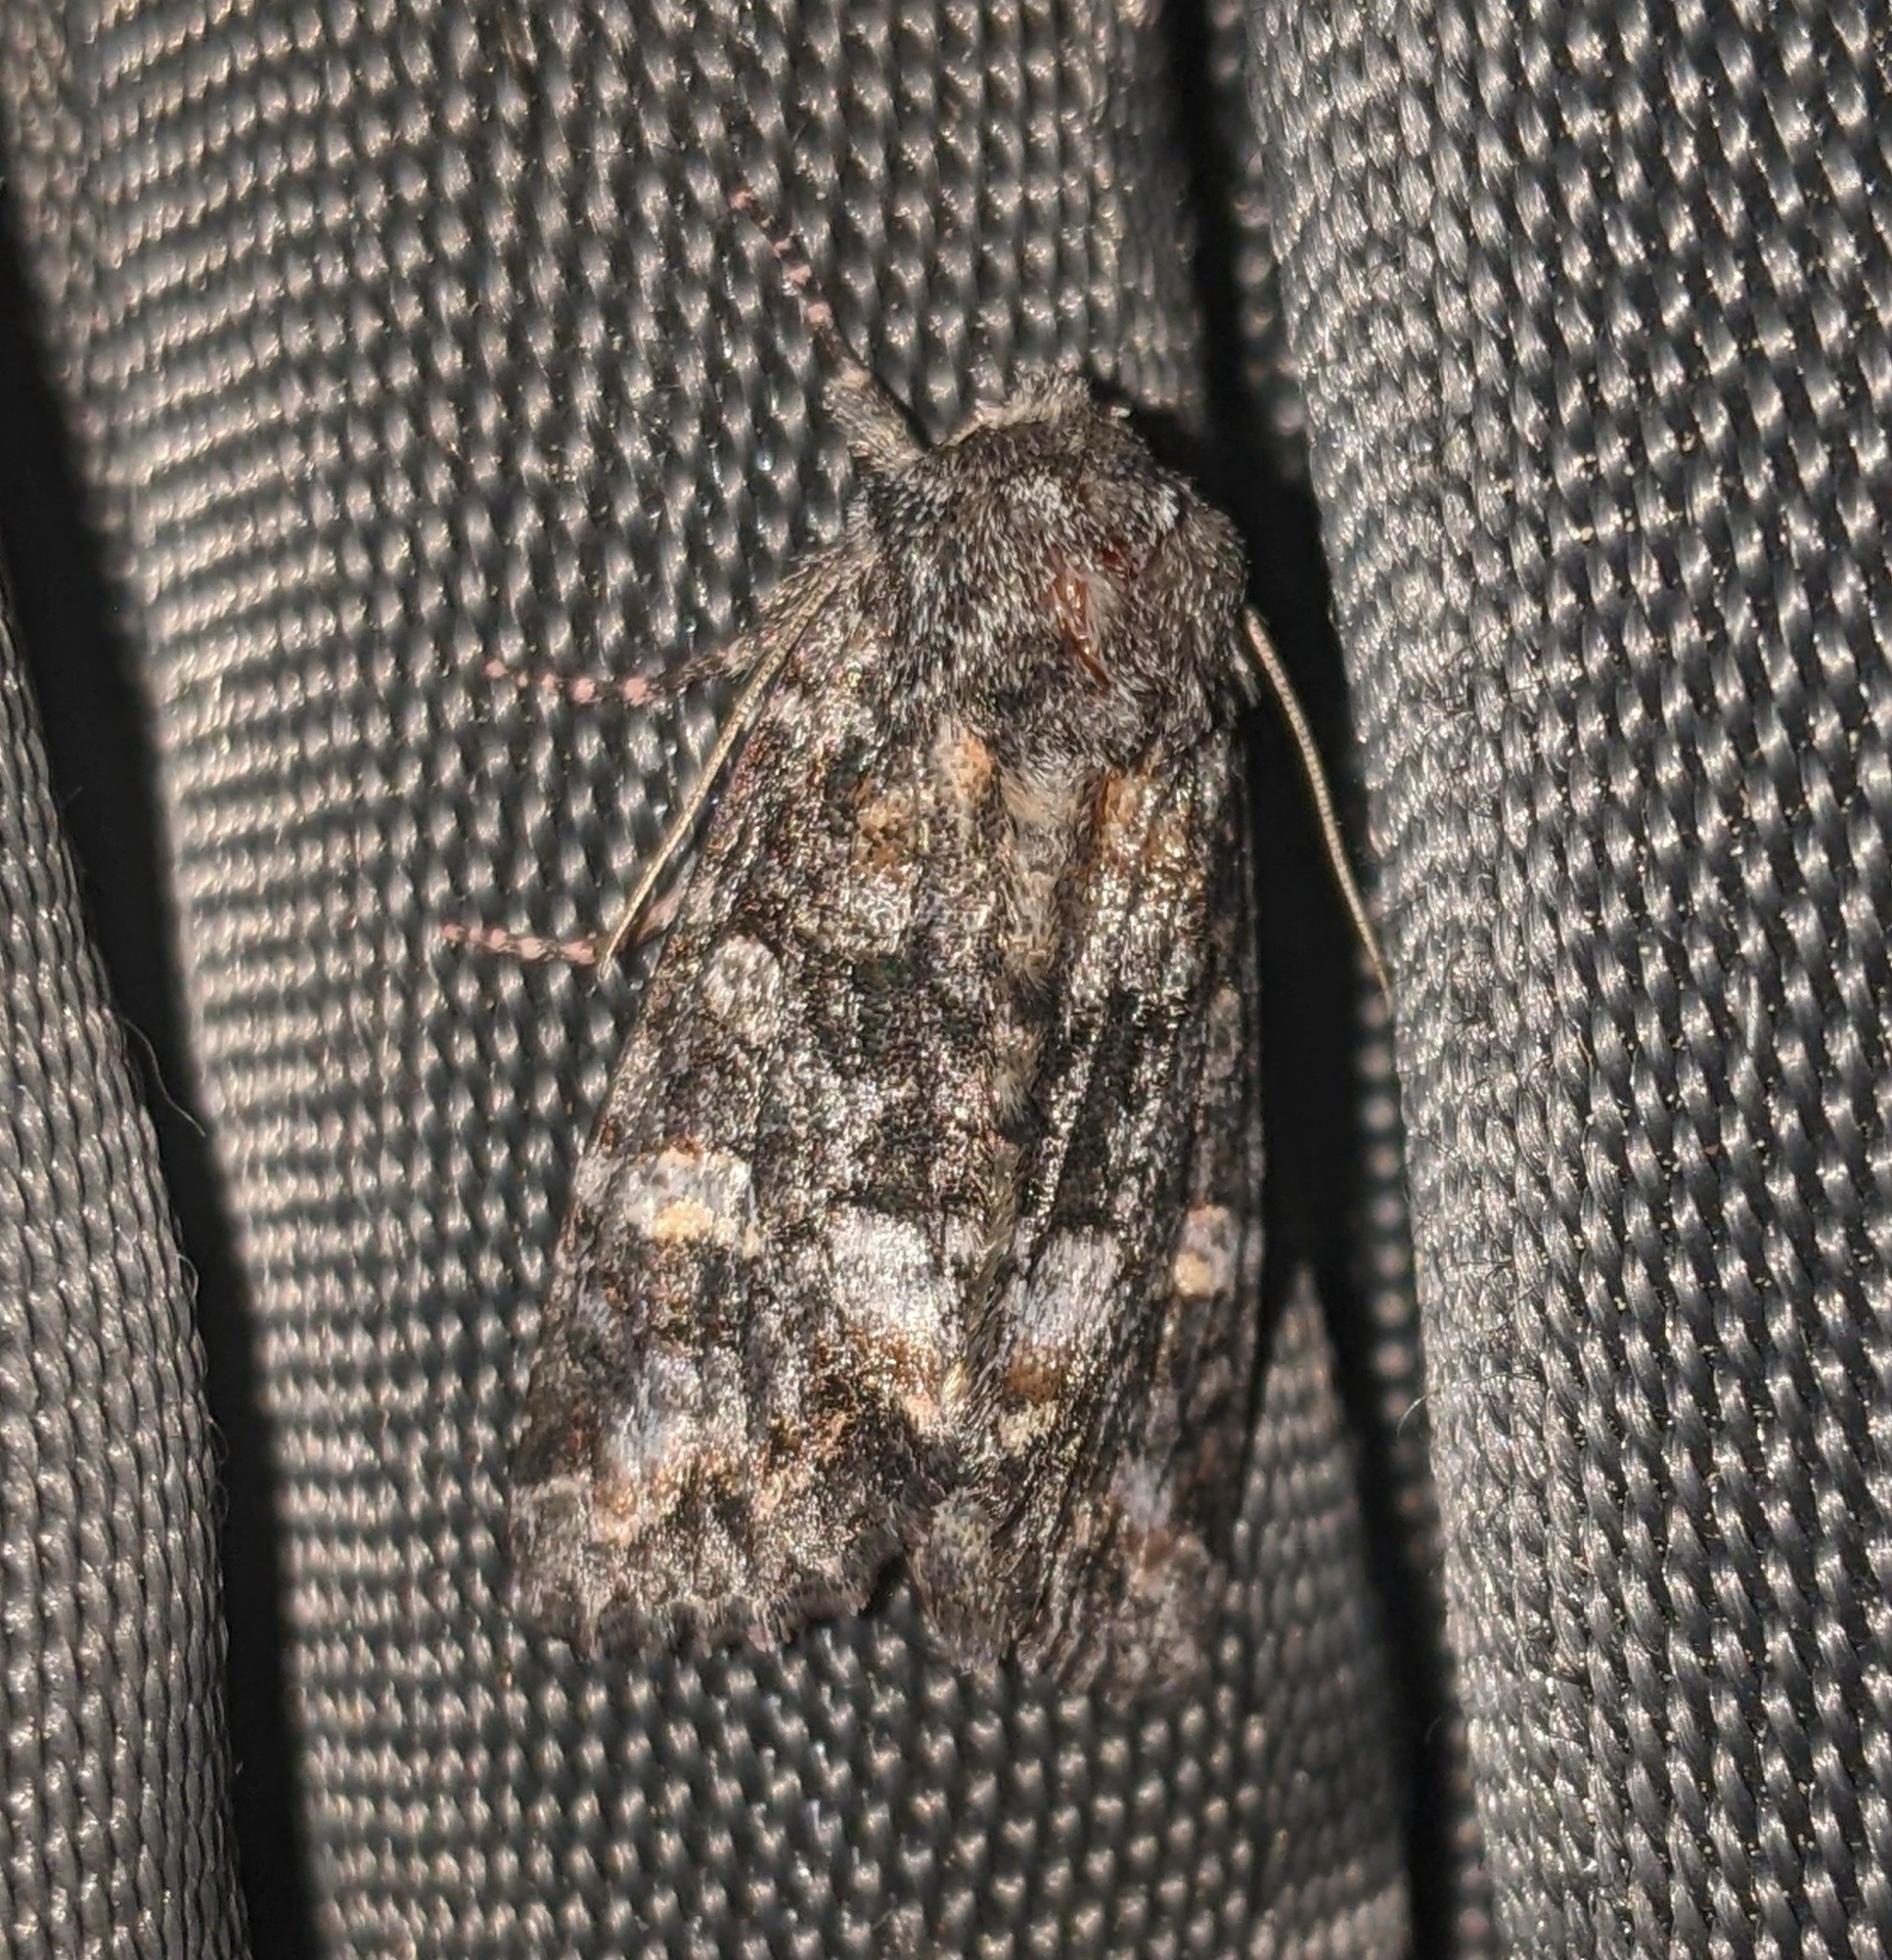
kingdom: Animalia
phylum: Arthropoda
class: Insecta
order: Lepidoptera
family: Noctuidae
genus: Spiramater
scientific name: Spiramater lutra
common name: Otter spiramater moth
